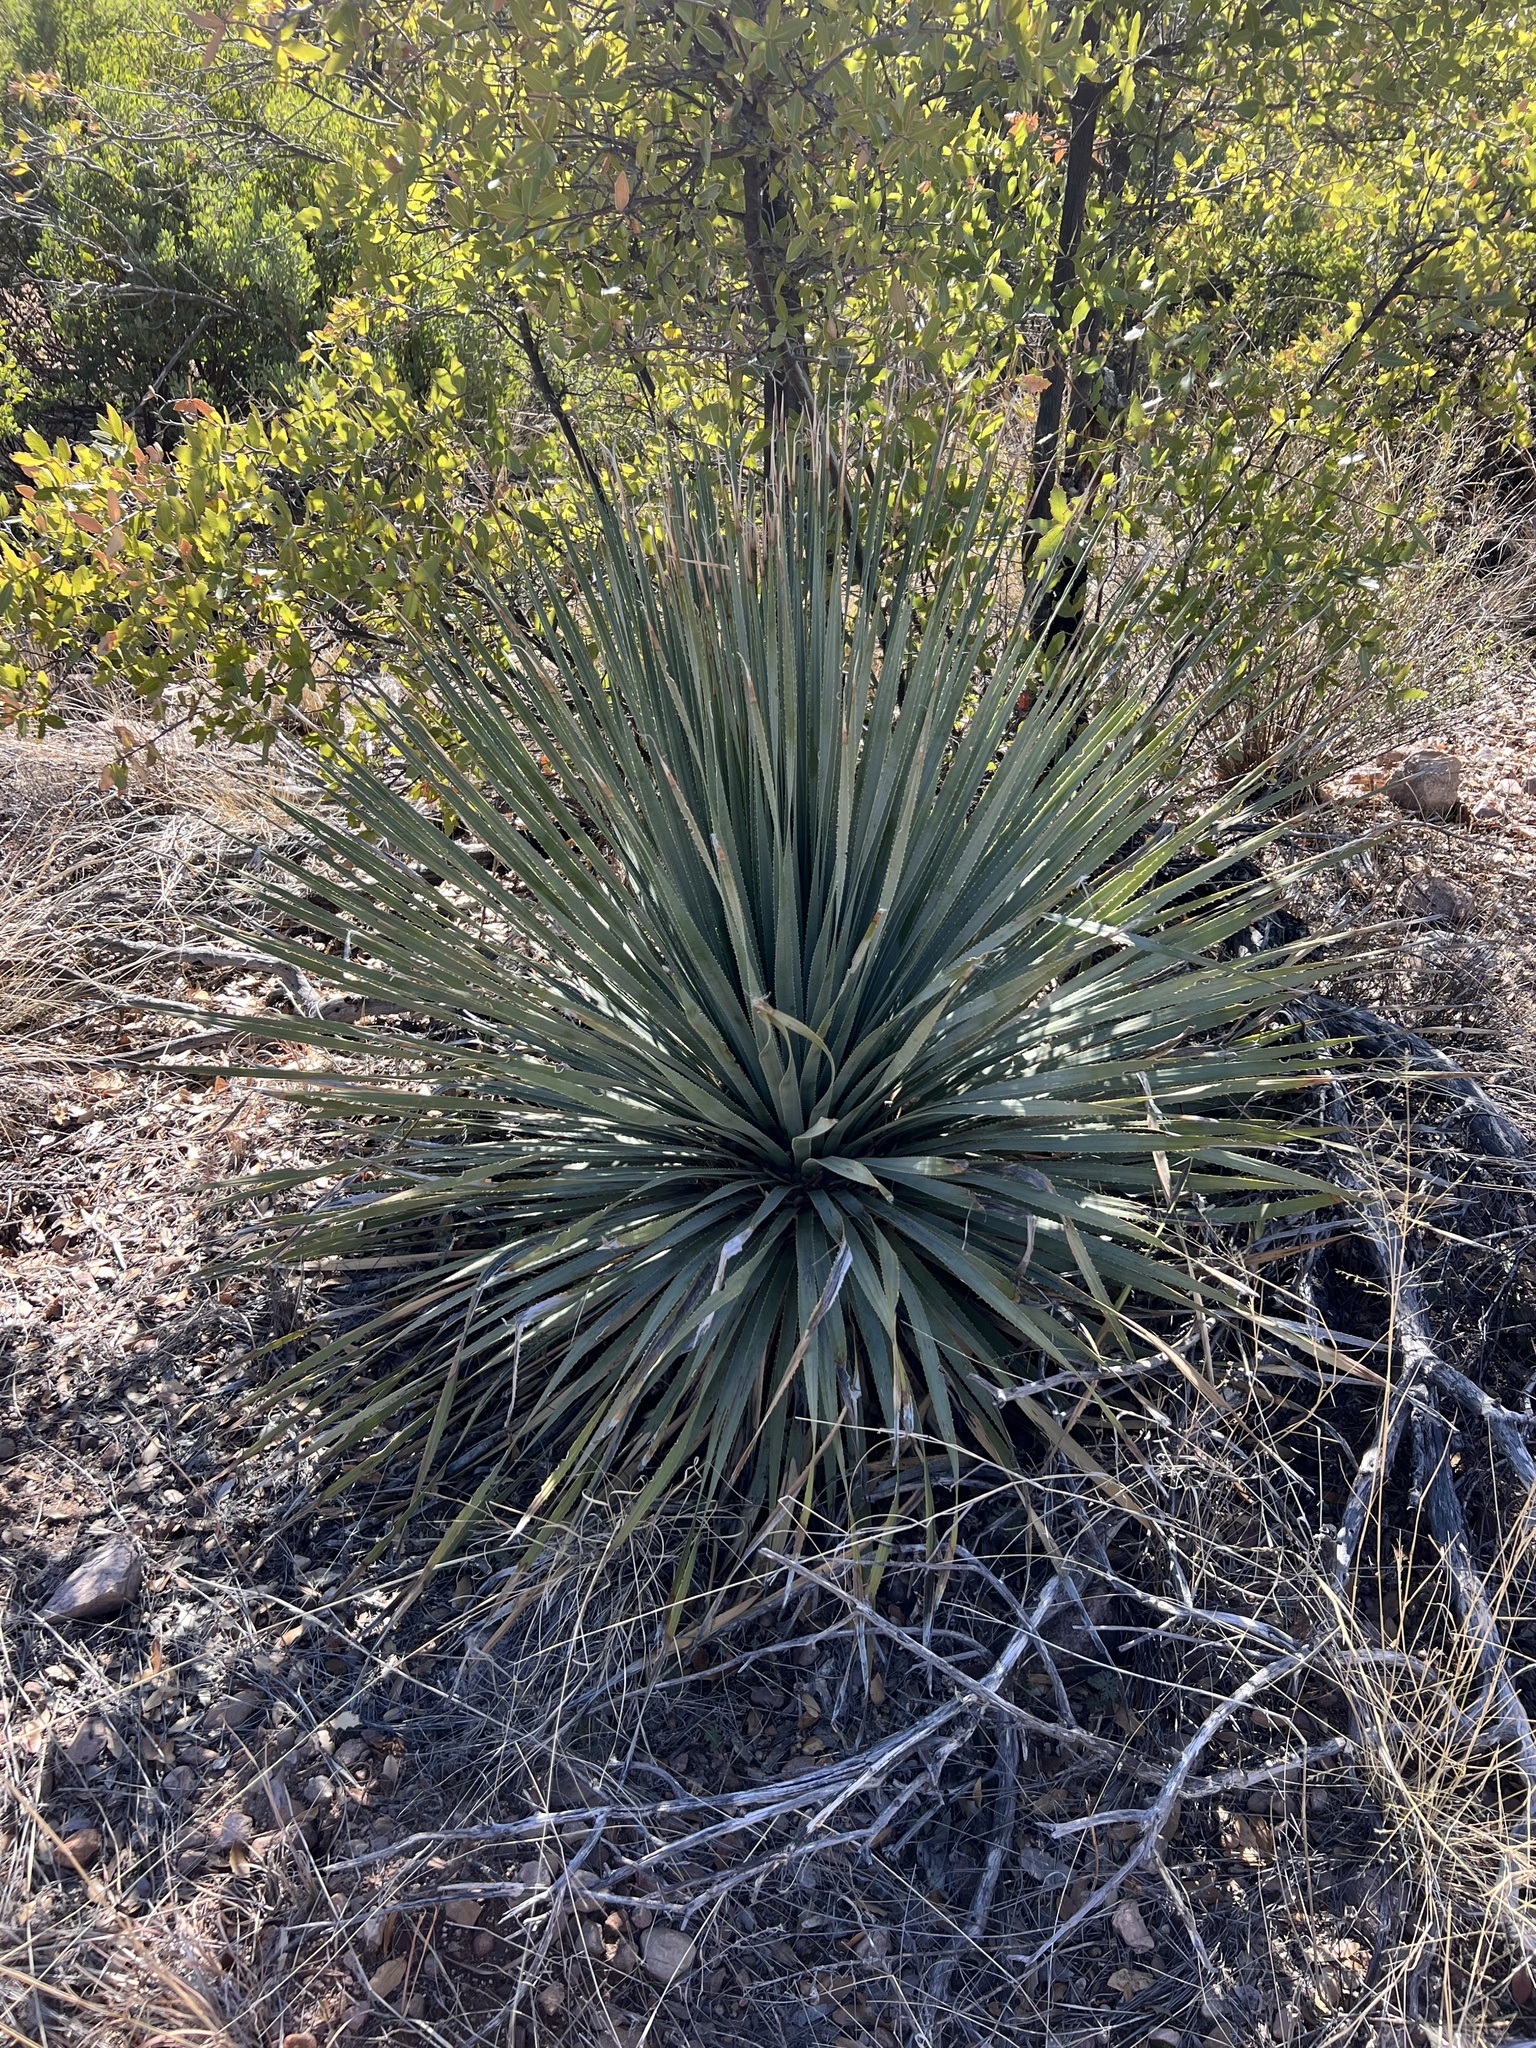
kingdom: Plantae
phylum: Tracheophyta
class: Liliopsida
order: Asparagales
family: Asparagaceae
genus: Dasylirion
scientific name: Dasylirion wheeleri
